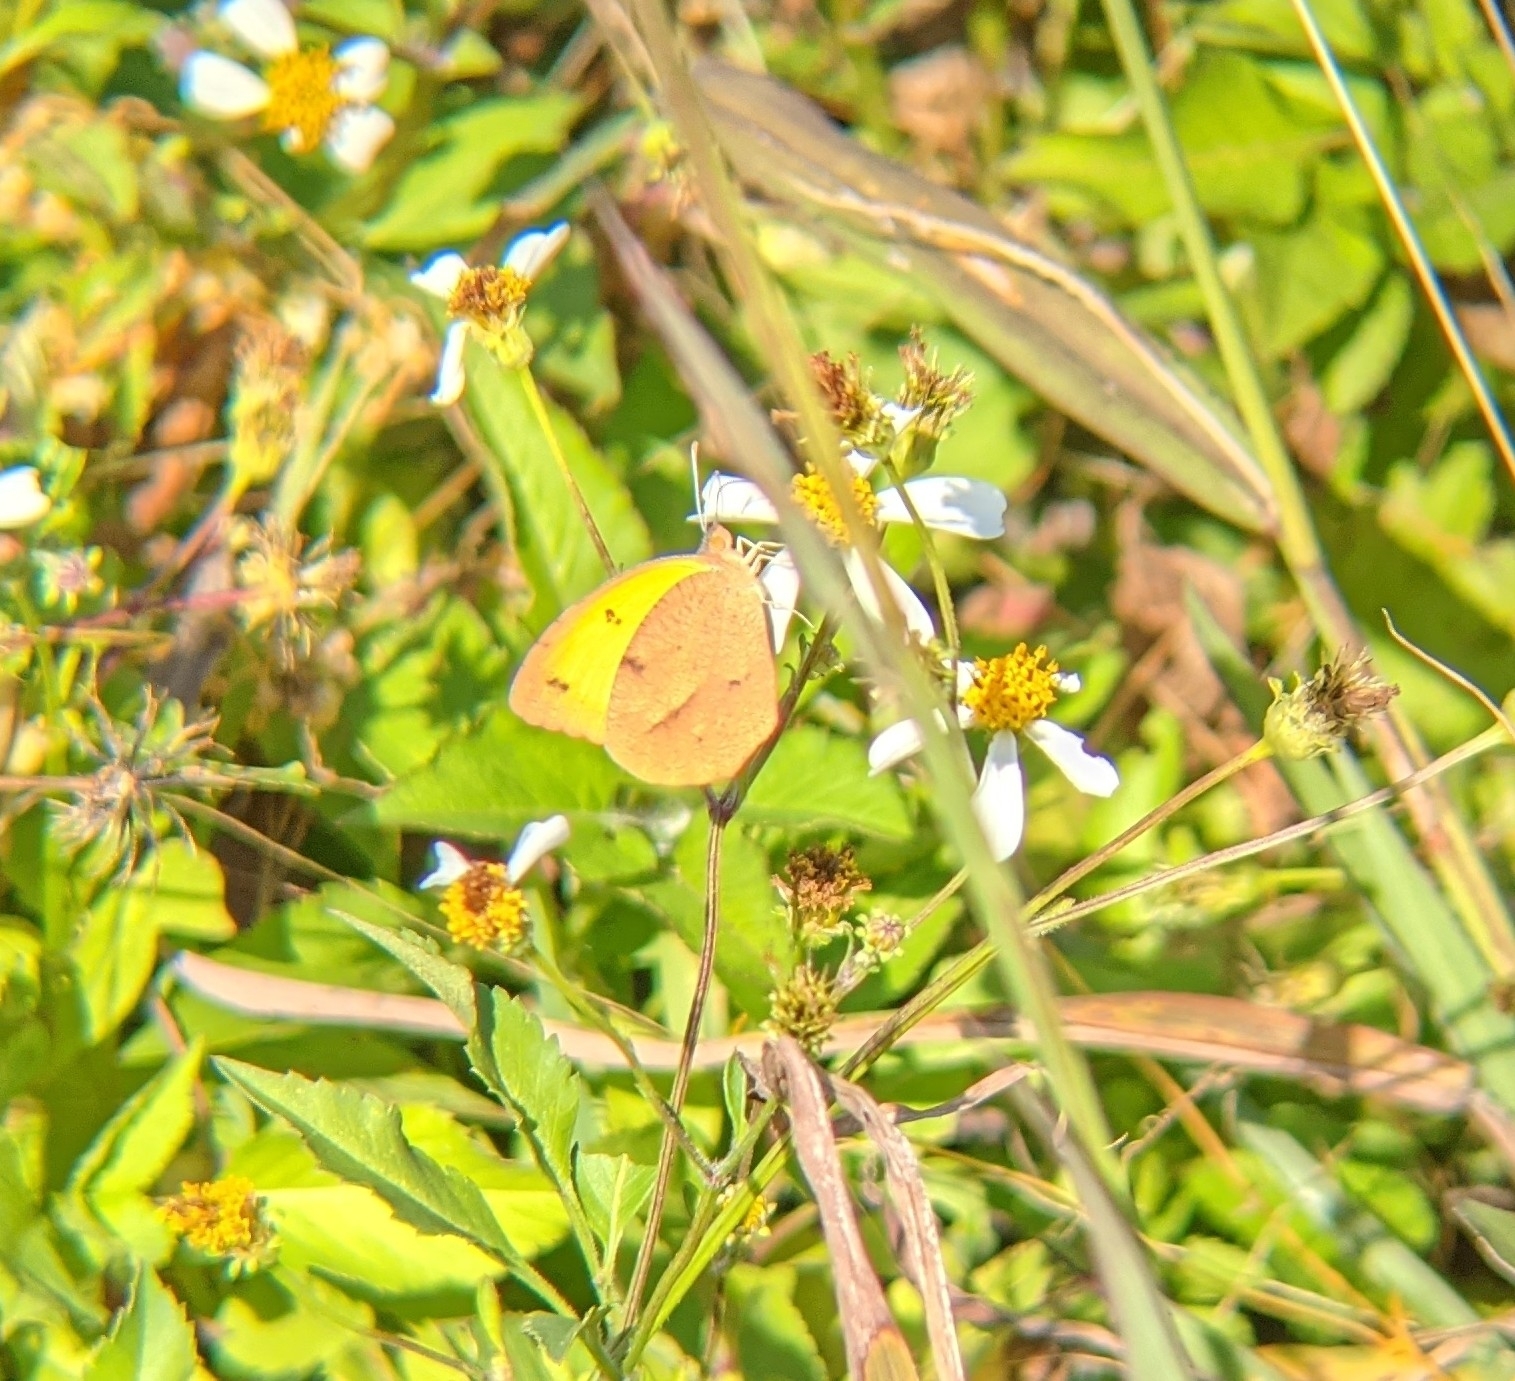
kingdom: Animalia
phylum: Arthropoda
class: Insecta
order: Lepidoptera
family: Pieridae
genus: Abaeis
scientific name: Abaeis nicippe
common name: Sleepy orange
